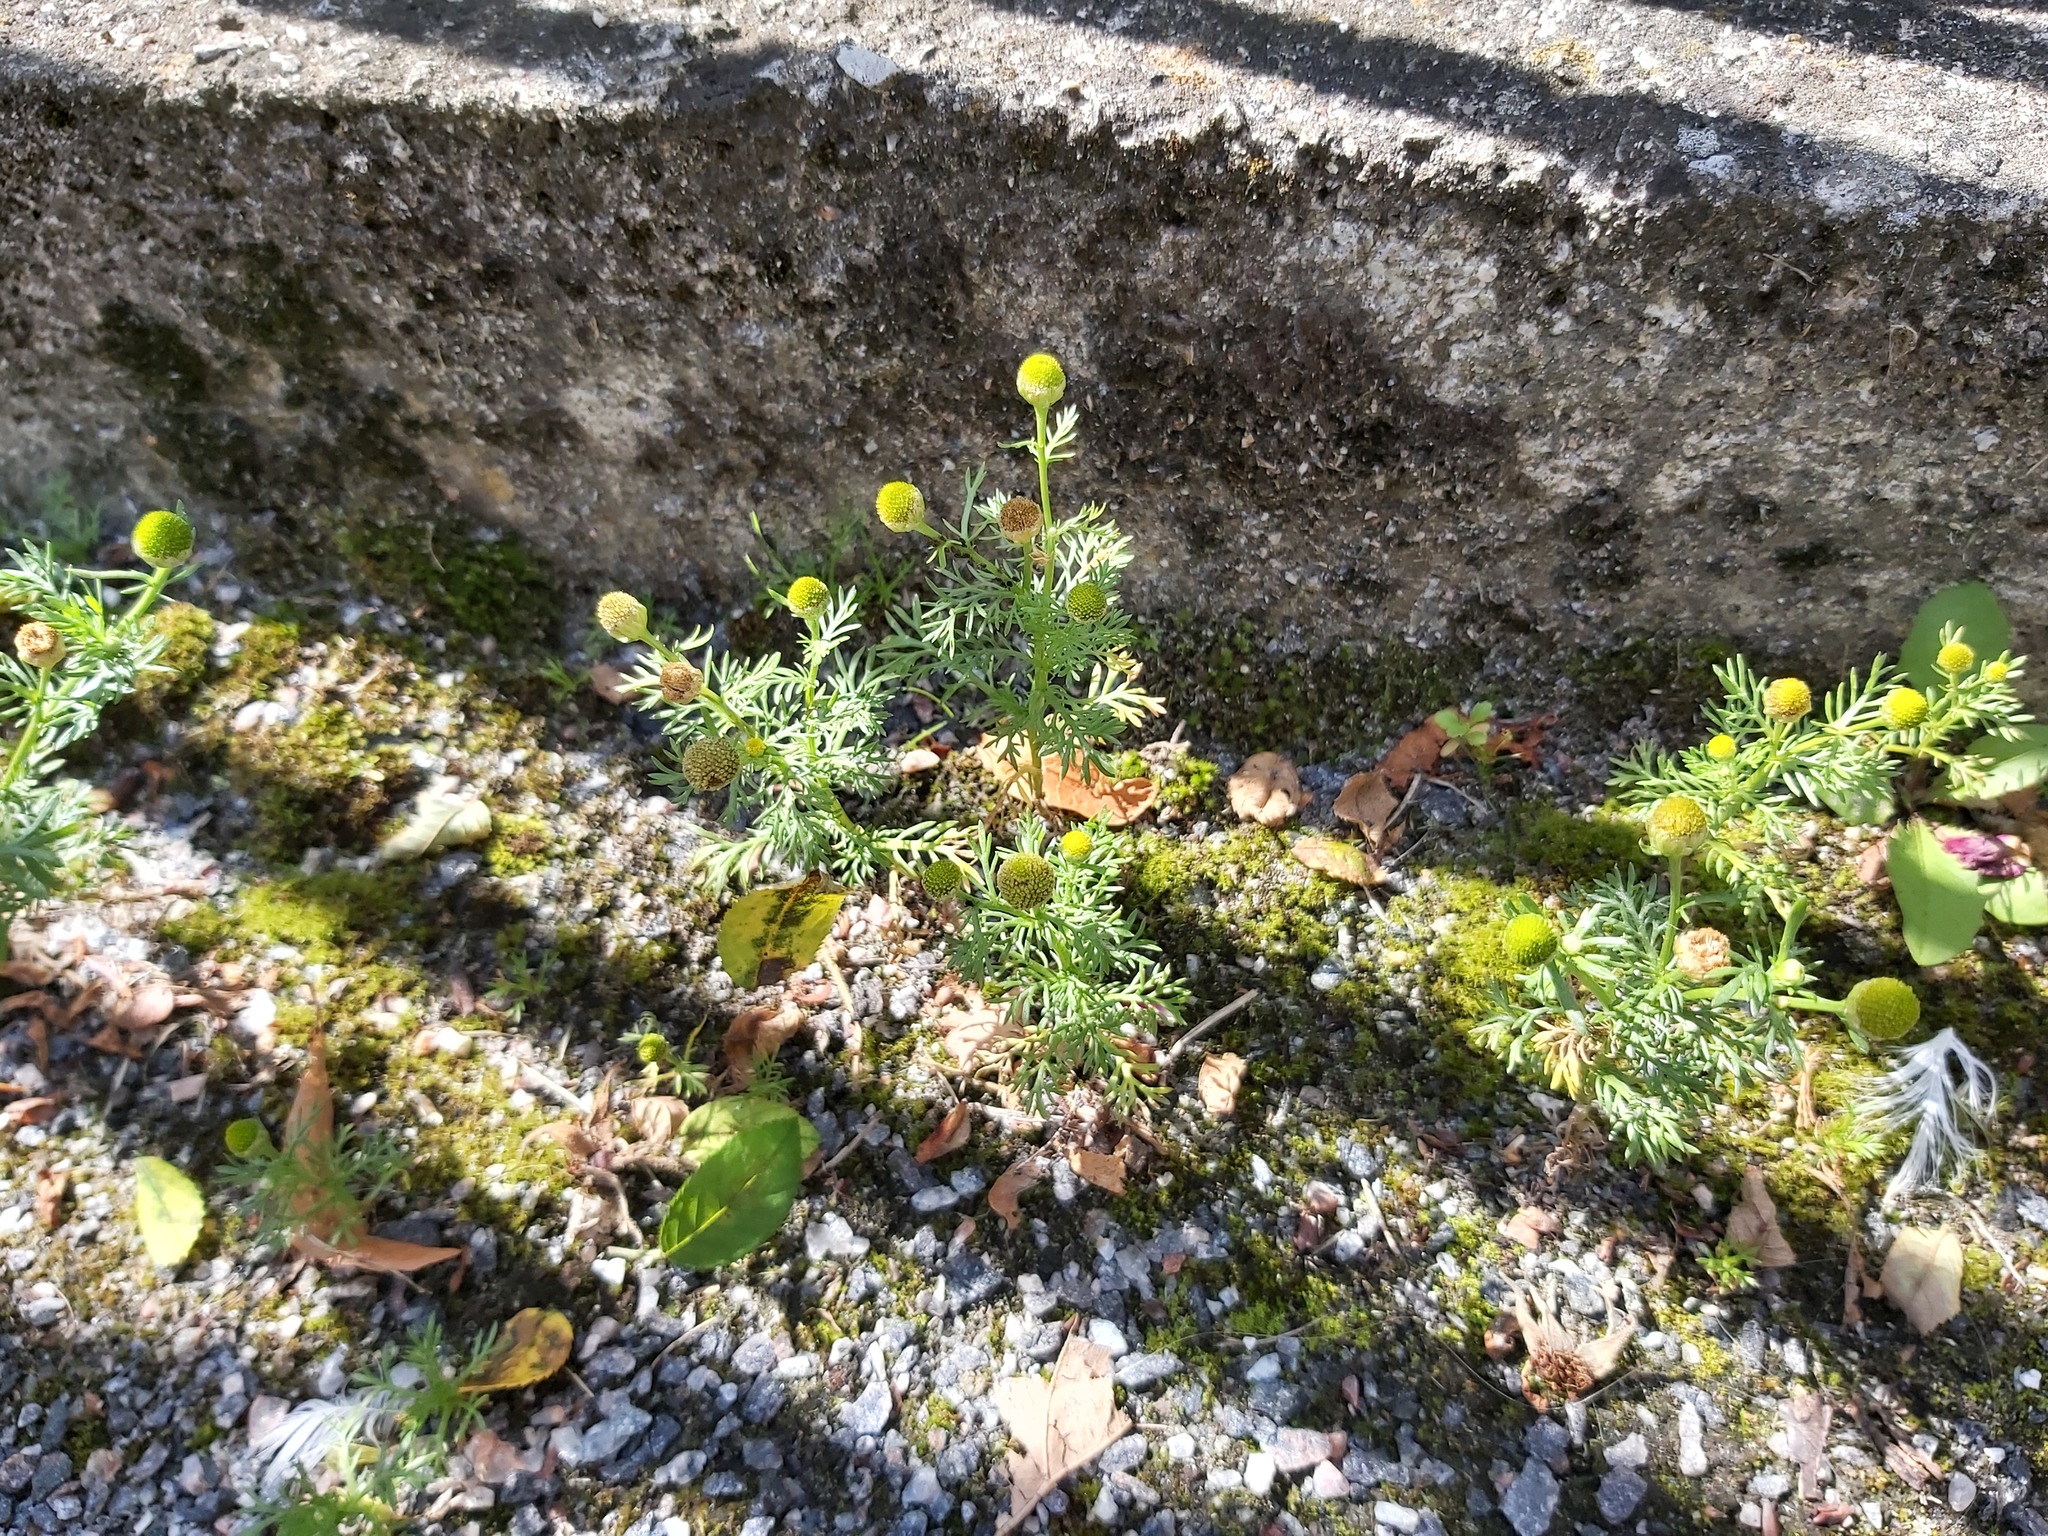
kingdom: Plantae
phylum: Tracheophyta
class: Magnoliopsida
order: Asterales
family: Asteraceae
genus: Matricaria
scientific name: Matricaria discoidea
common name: Disc mayweed
